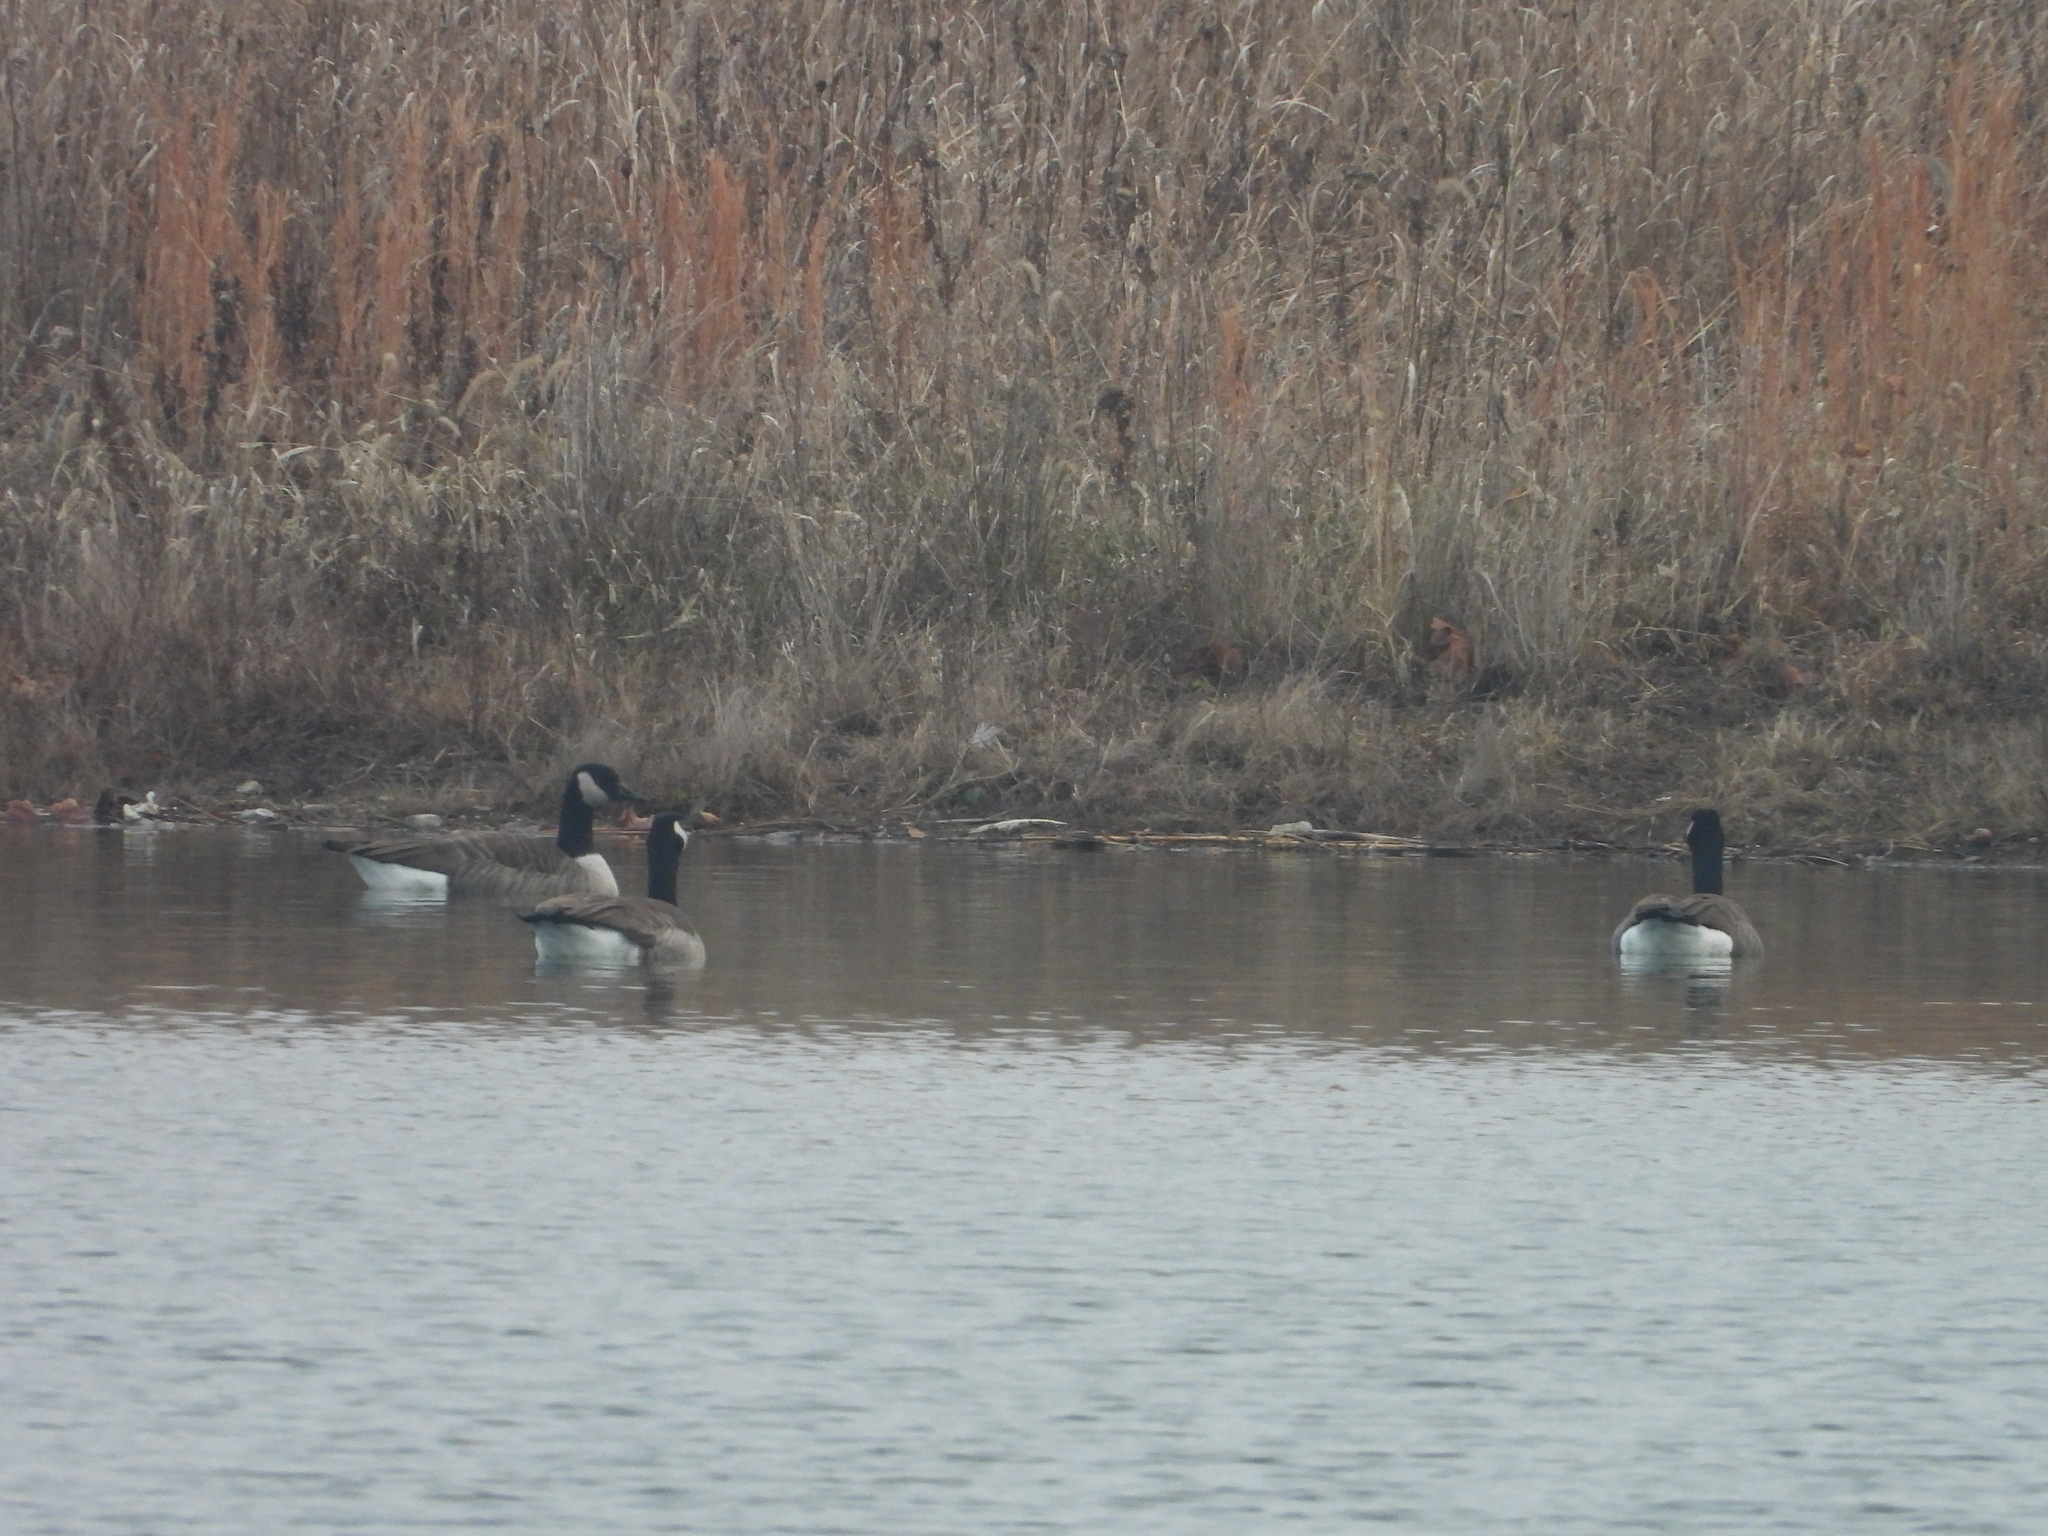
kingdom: Animalia
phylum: Chordata
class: Aves
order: Anseriformes
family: Anatidae
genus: Branta
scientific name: Branta canadensis
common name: Canada goose
